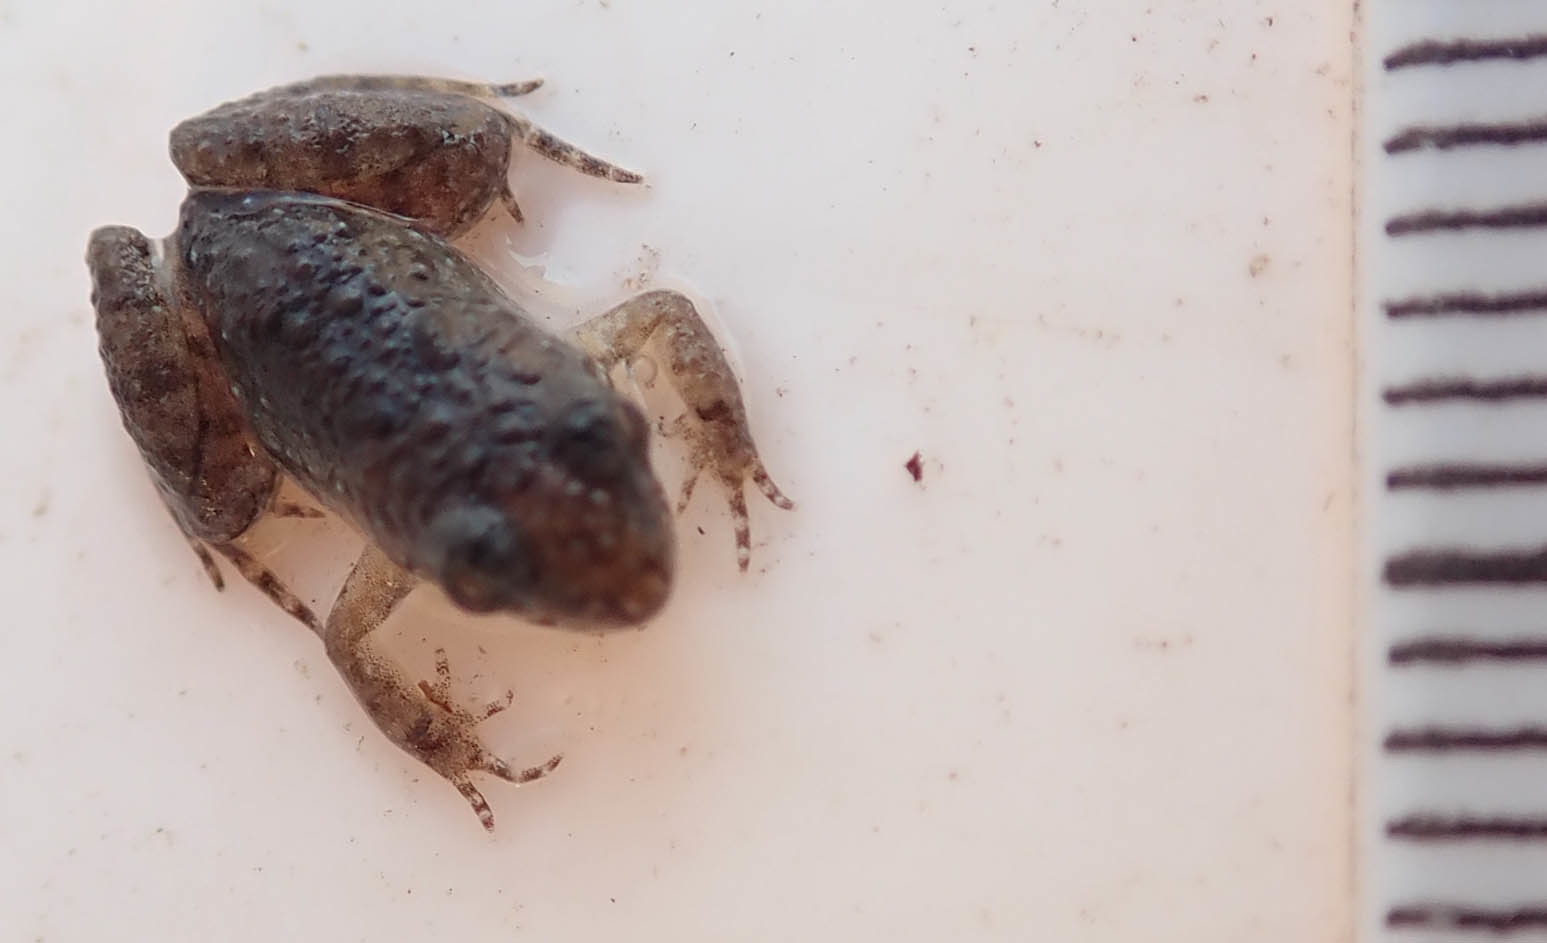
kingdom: Animalia
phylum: Chordata
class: Amphibia
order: Anura
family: Phrynobatrachidae
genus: Phrynobatrachus
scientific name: Phrynobatrachus mababiensis
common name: Dwarf puddle frog
